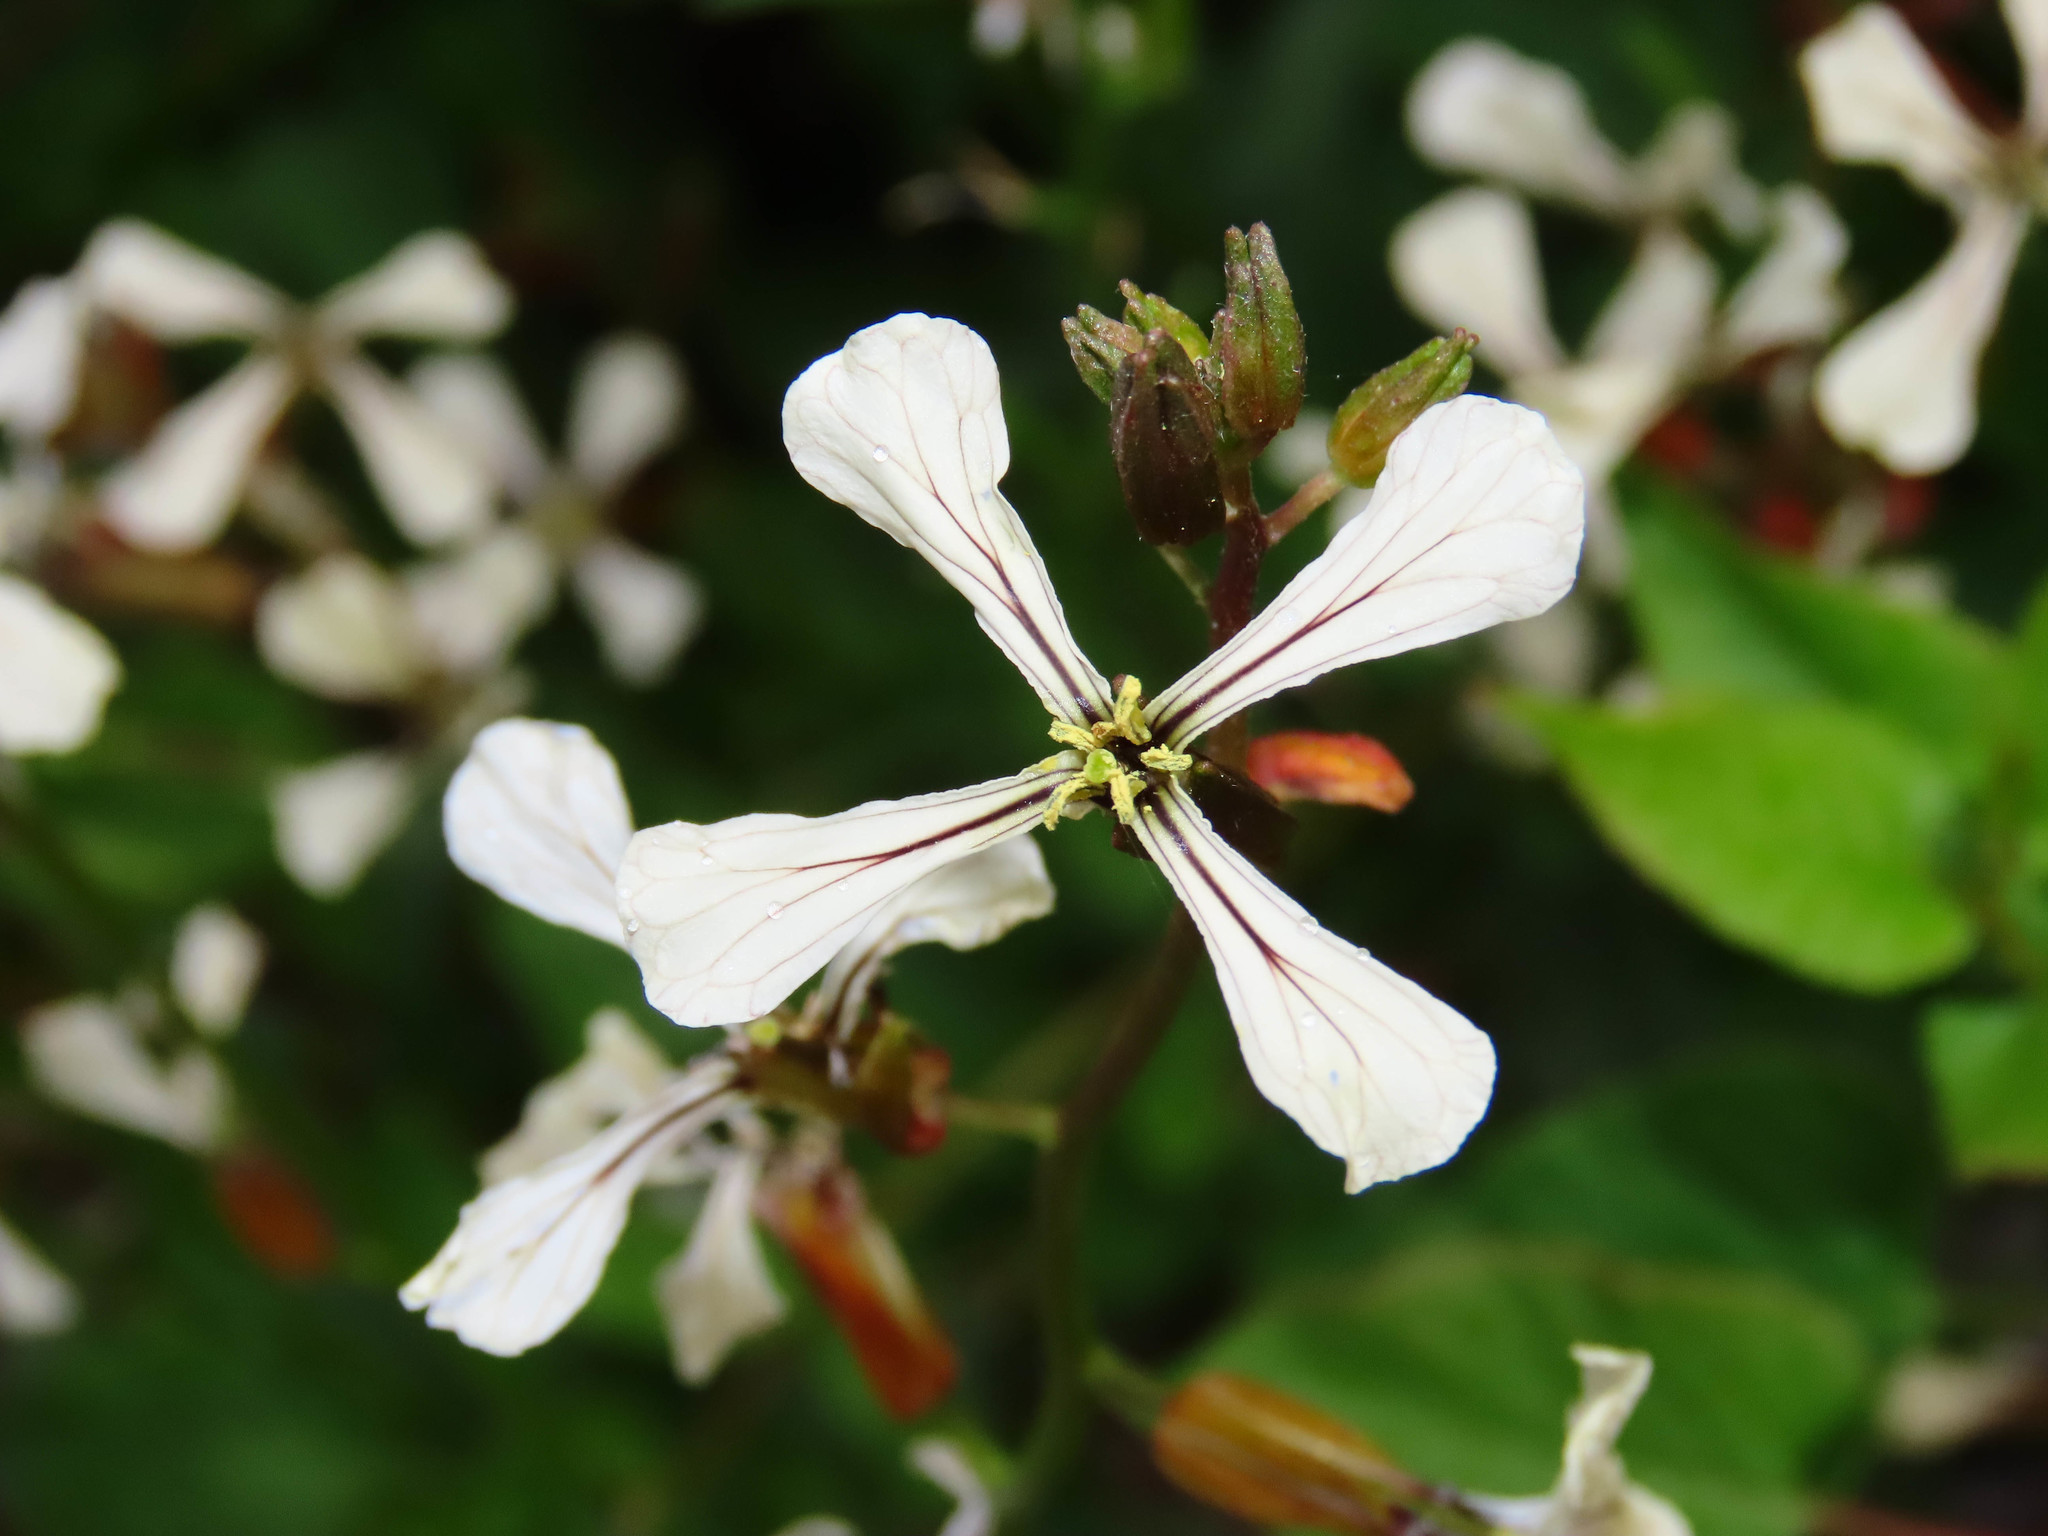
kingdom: Plantae
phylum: Tracheophyta
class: Magnoliopsida
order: Brassicales
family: Brassicaceae
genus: Eruca
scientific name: Eruca vesicaria
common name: Garden rocket
